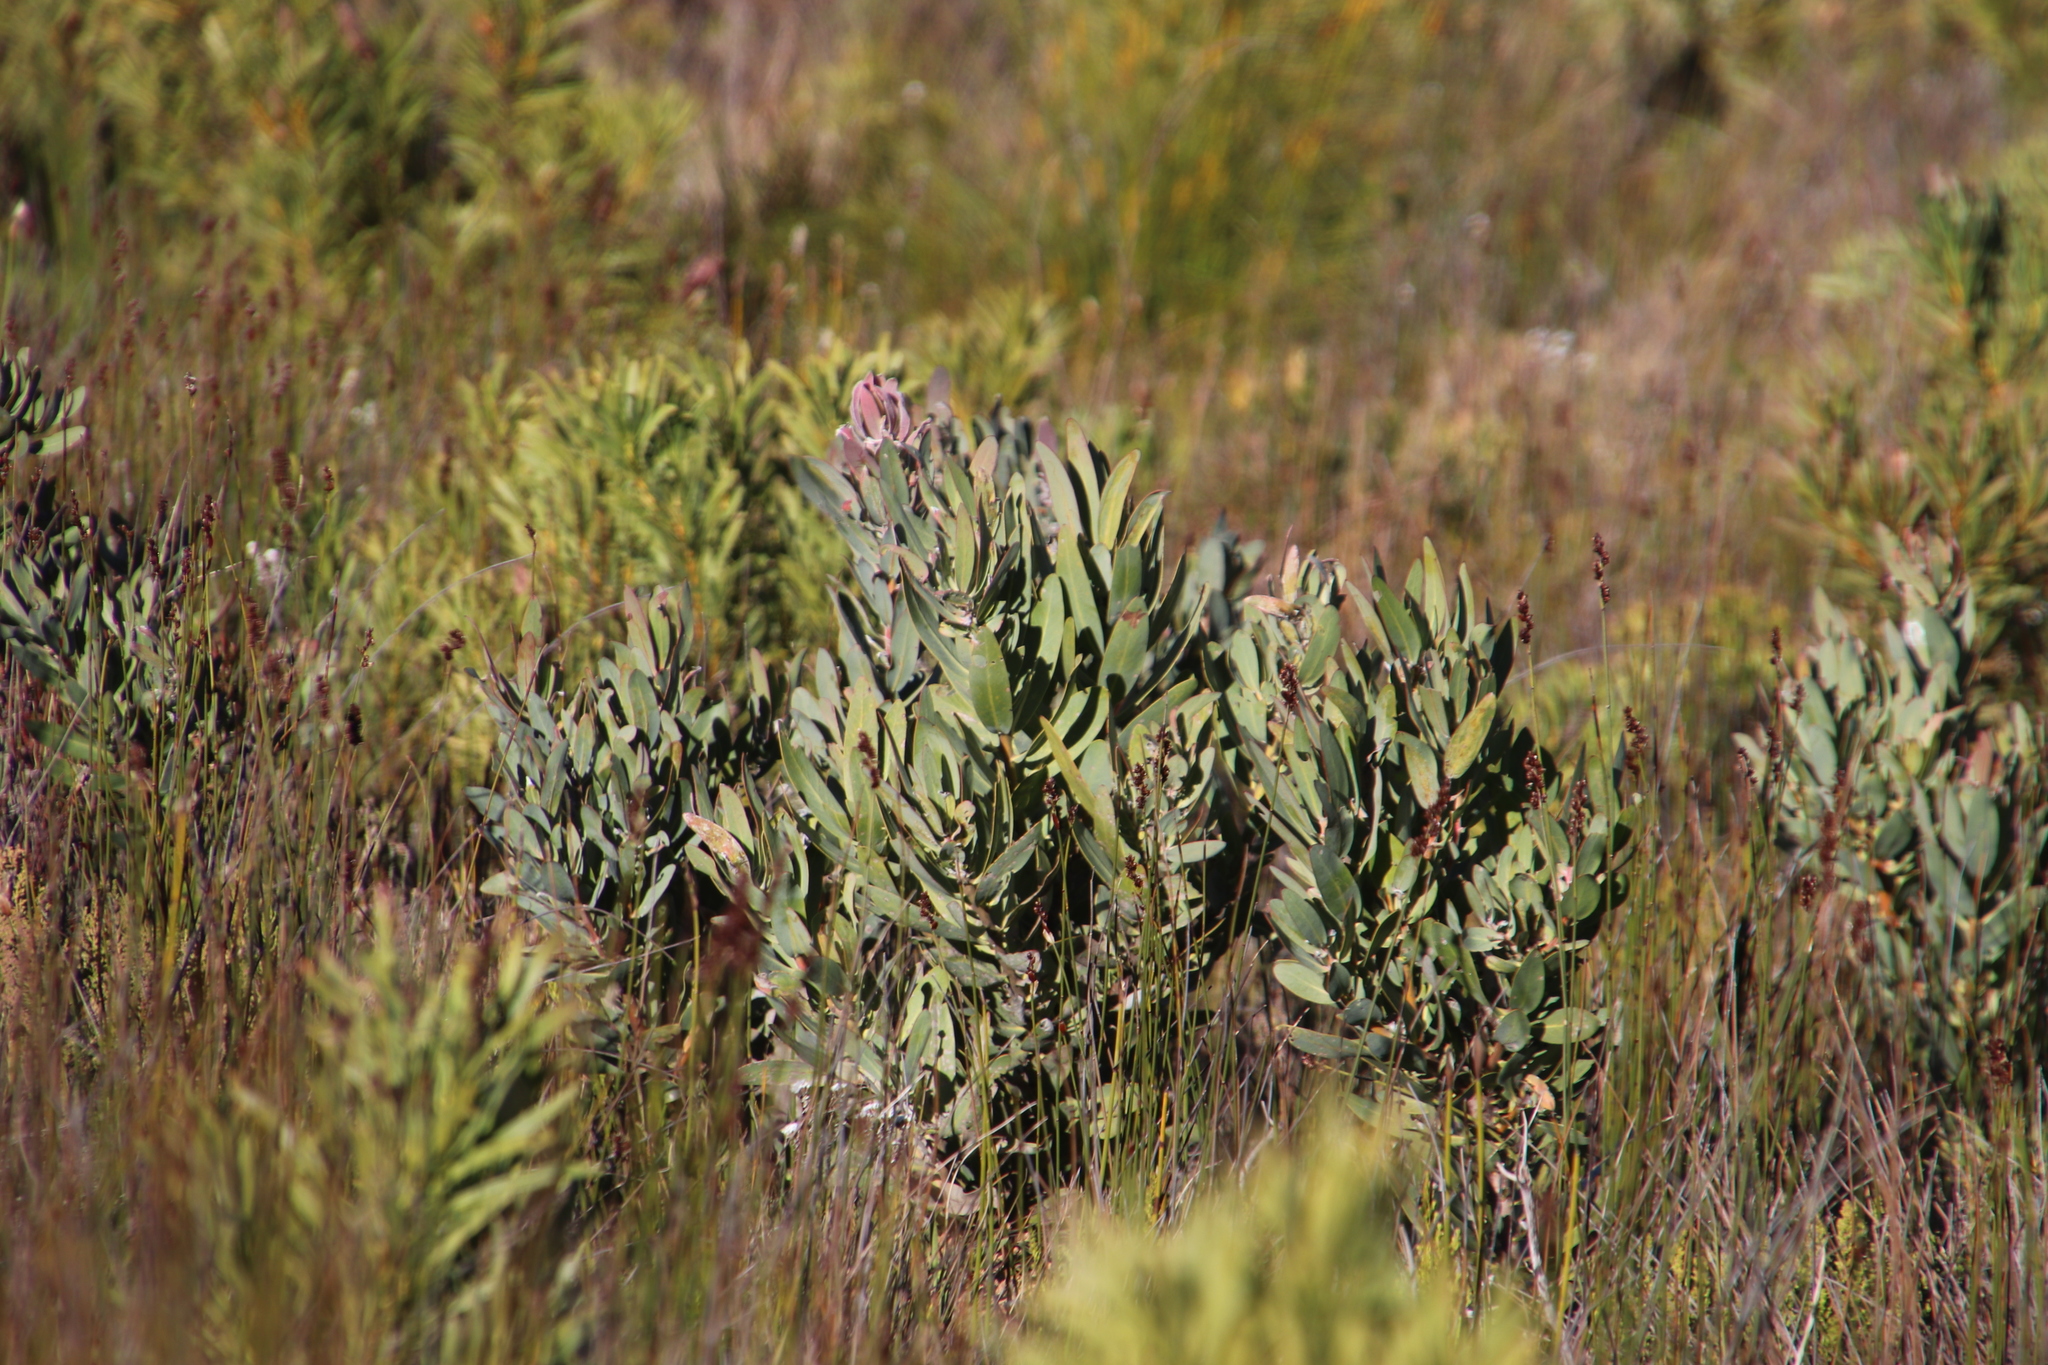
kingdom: Plantae
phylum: Tracheophyta
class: Magnoliopsida
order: Proteales
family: Proteaceae
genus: Protea
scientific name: Protea laurifolia
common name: Grey-leaf sugarbsh
